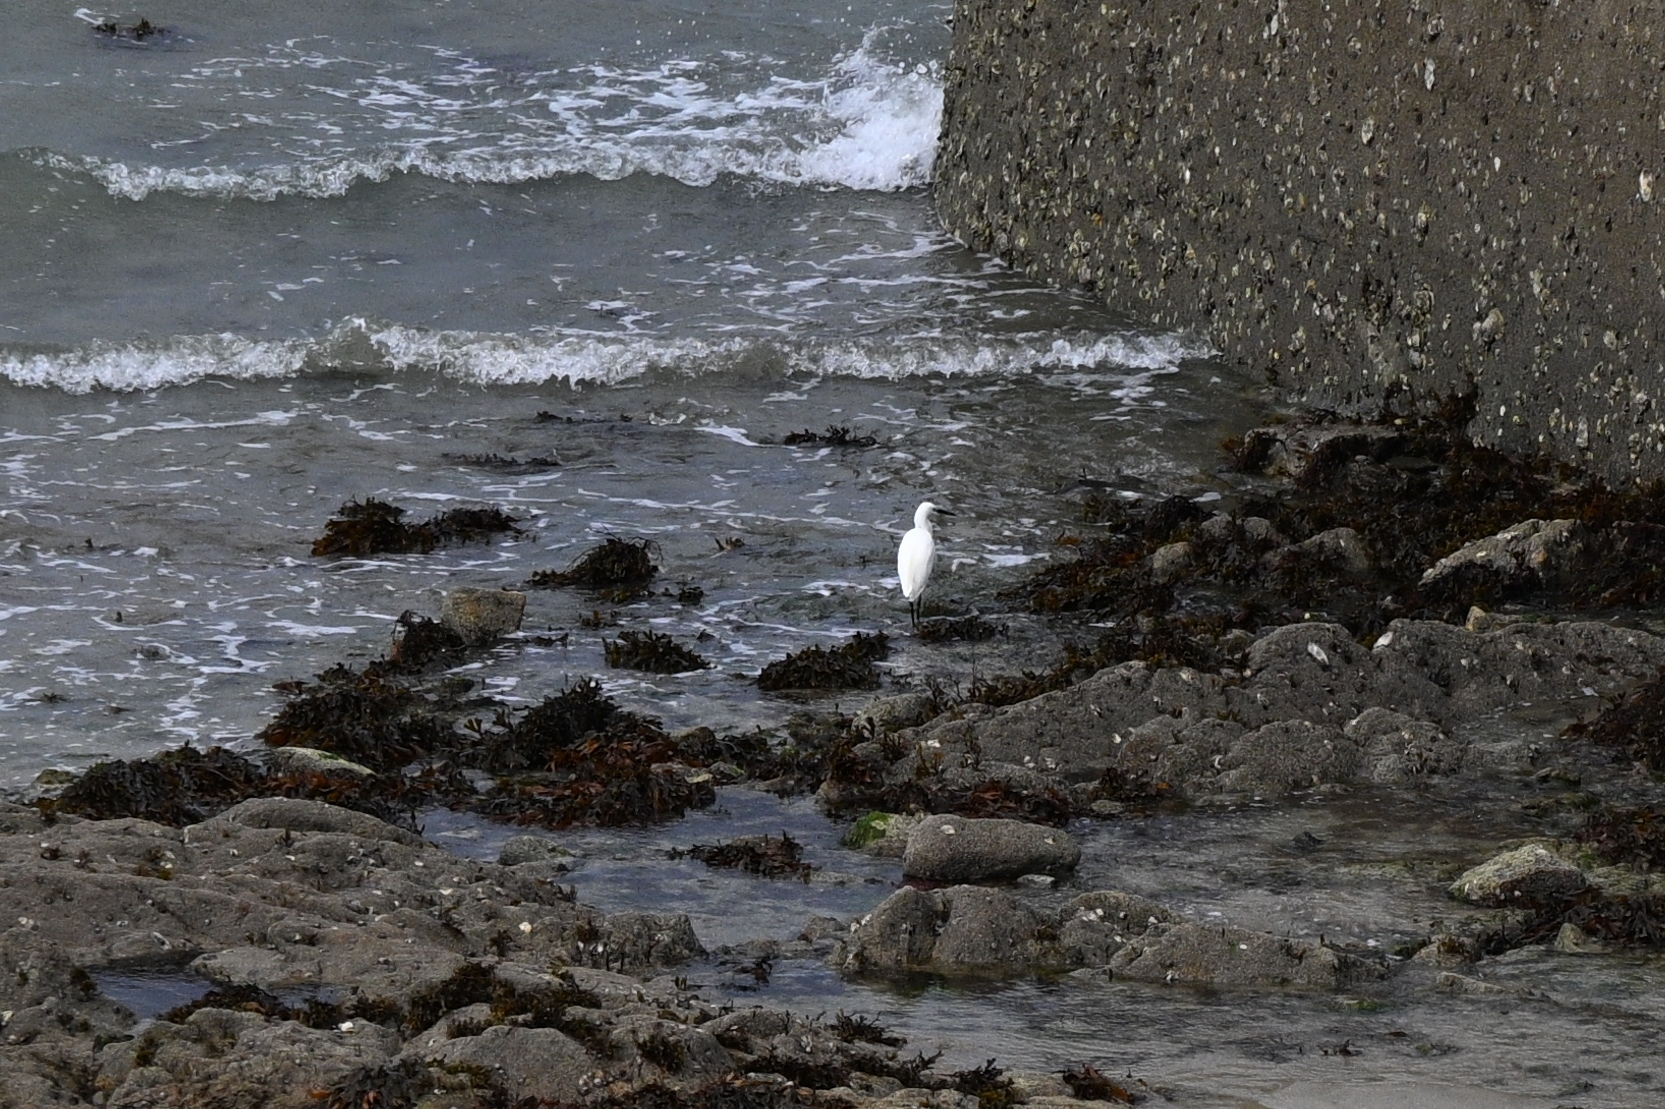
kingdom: Animalia
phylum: Chordata
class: Aves
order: Pelecaniformes
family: Ardeidae
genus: Egretta
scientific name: Egretta garzetta
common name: Little egret
